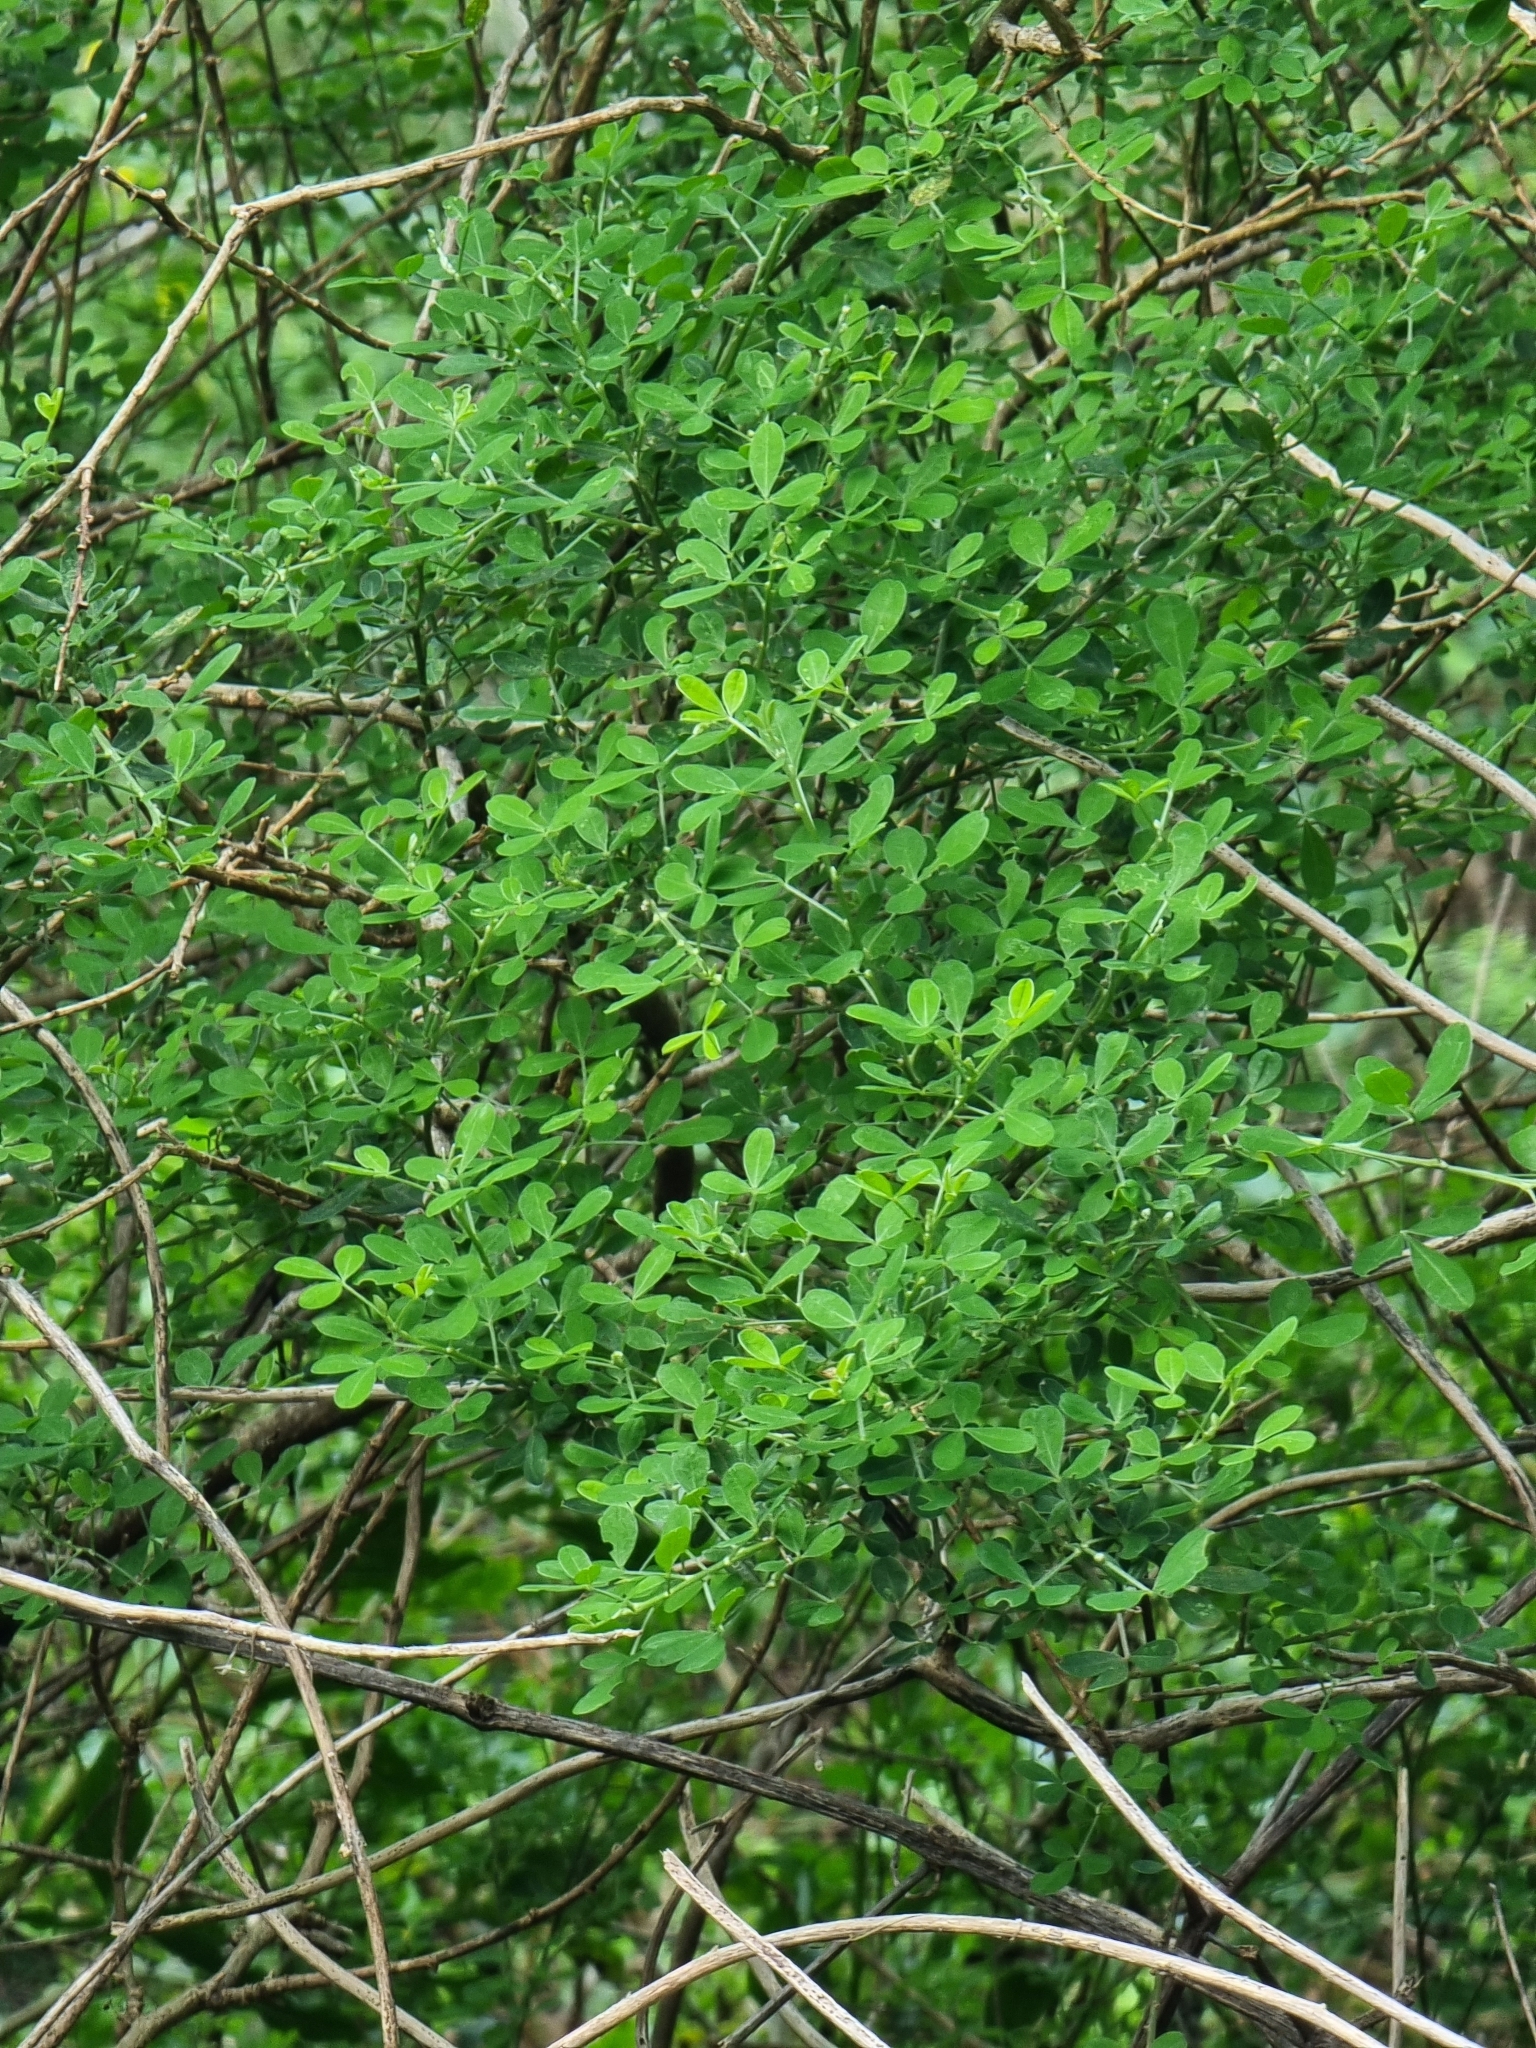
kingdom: Plantae
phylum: Tracheophyta
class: Magnoliopsida
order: Fabales
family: Fabaceae
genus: Genista
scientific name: Genista maderensis
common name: Madeira dyer's greenweed
